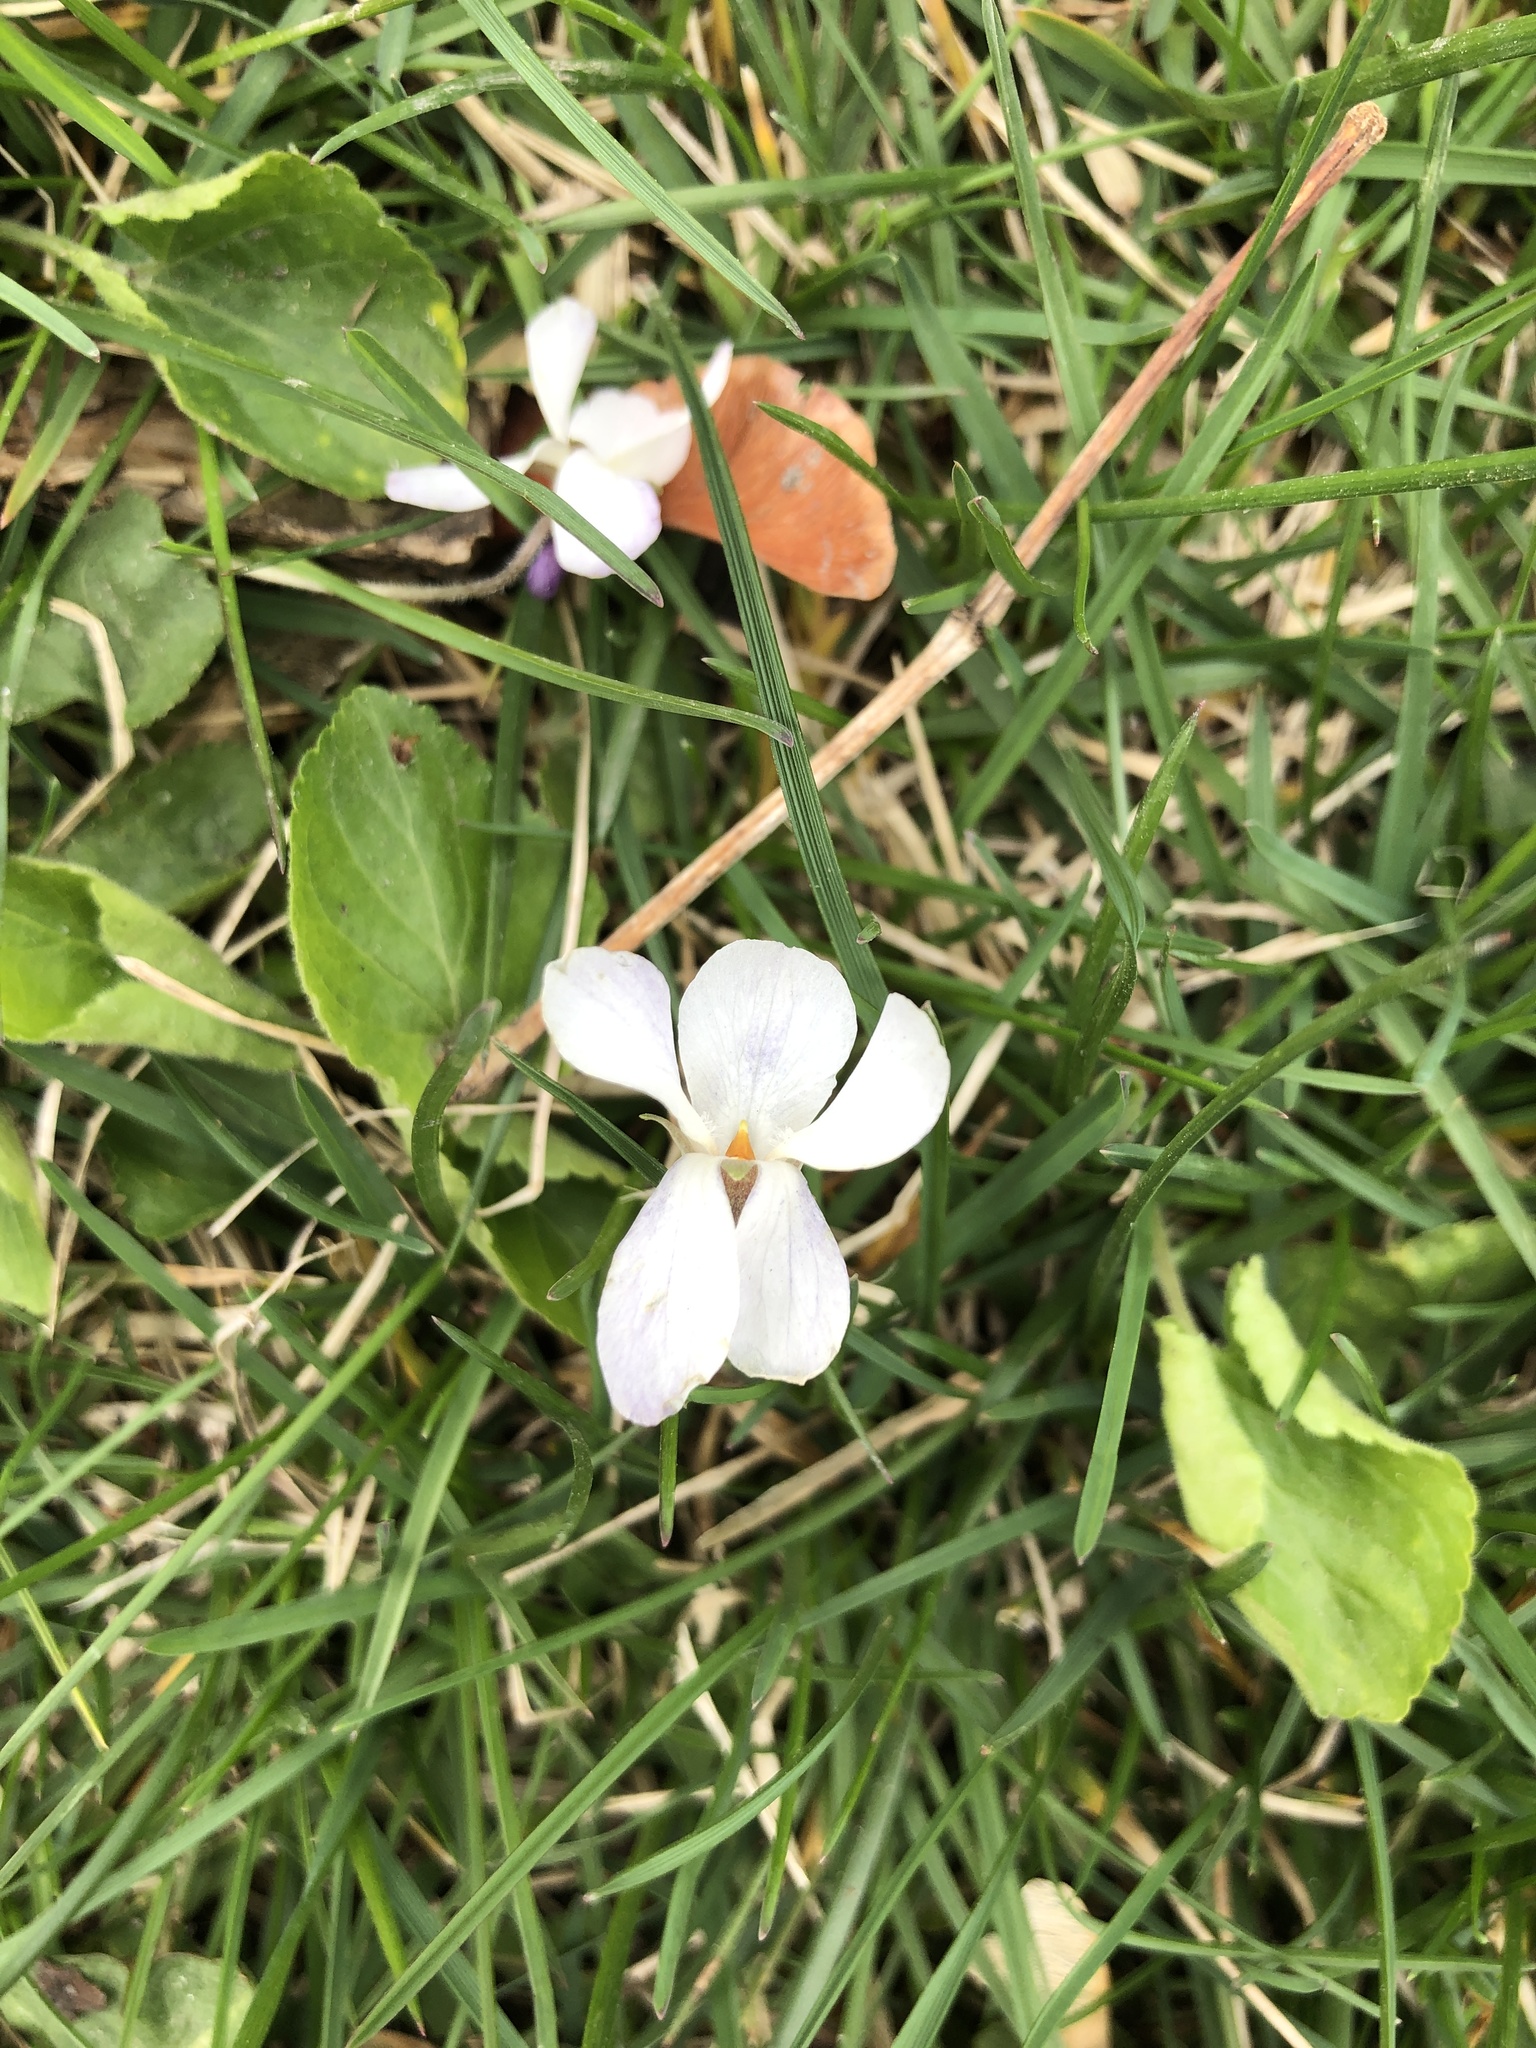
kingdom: Plantae
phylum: Tracheophyta
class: Magnoliopsida
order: Malpighiales
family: Violaceae
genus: Viola
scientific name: Viola odorata
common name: Sweet violet
